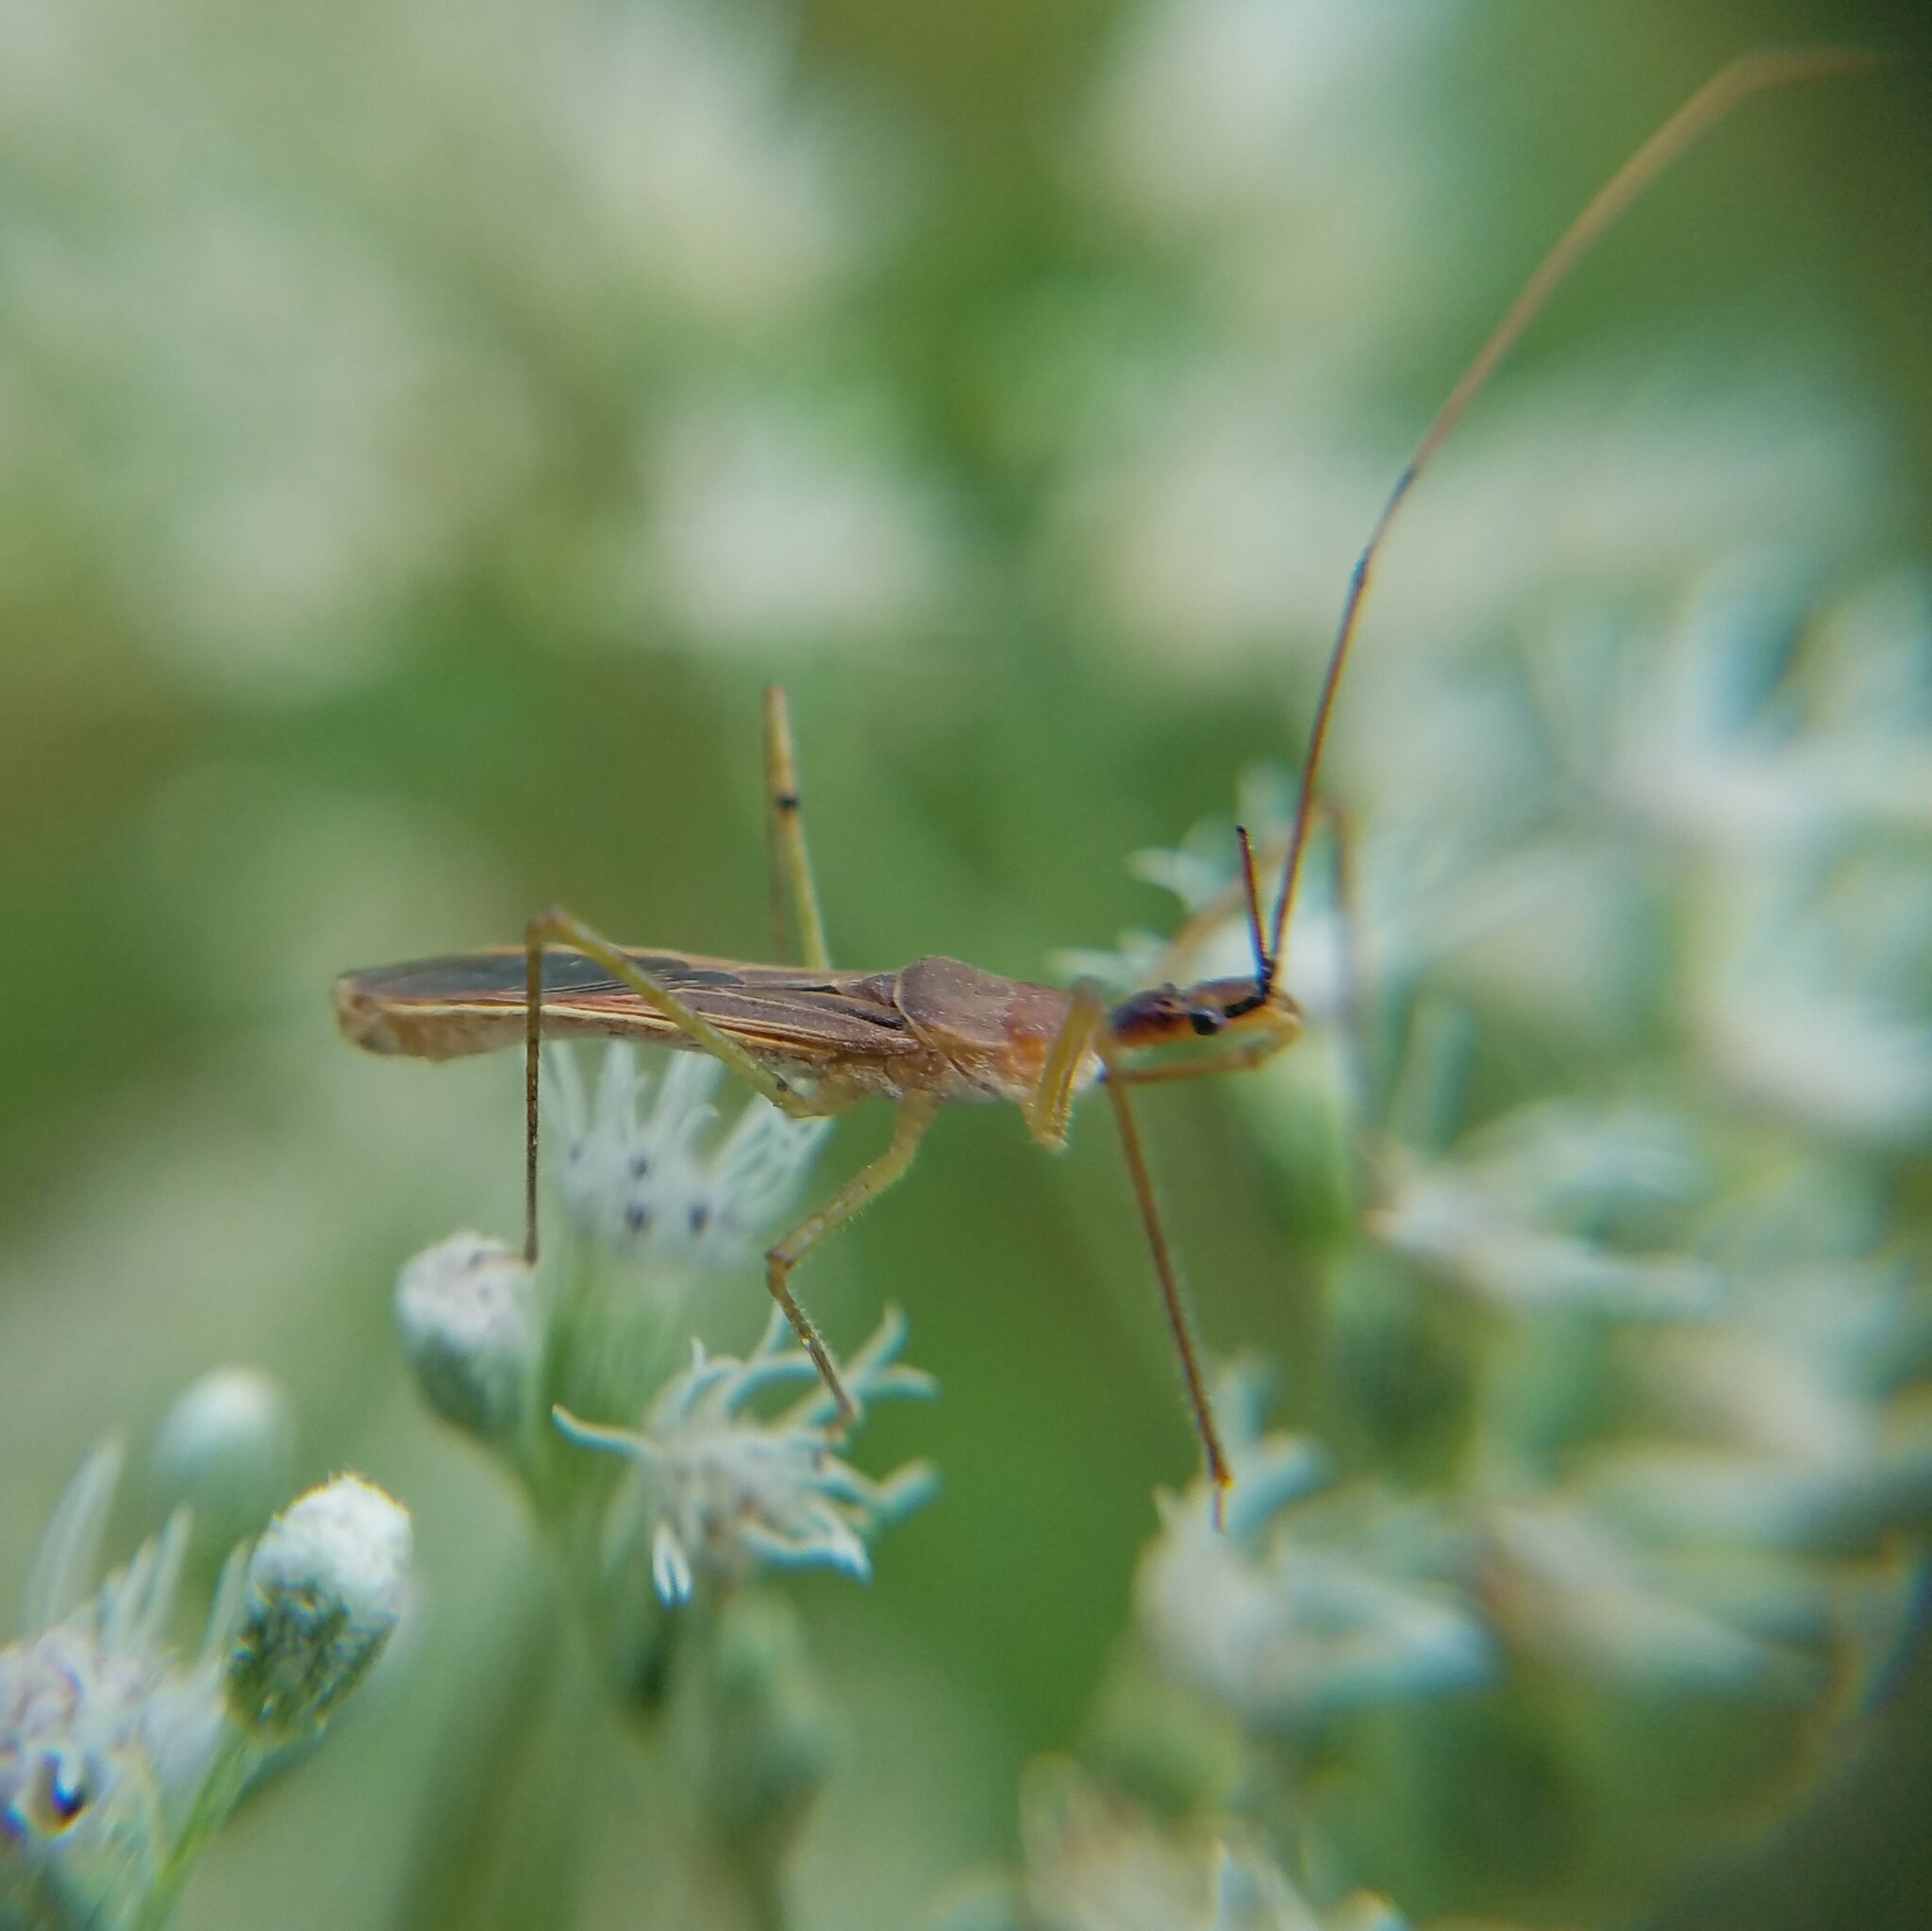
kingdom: Animalia
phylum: Arthropoda
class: Insecta
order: Hemiptera
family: Reduviidae
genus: Zelus
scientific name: Zelus cervicalis
